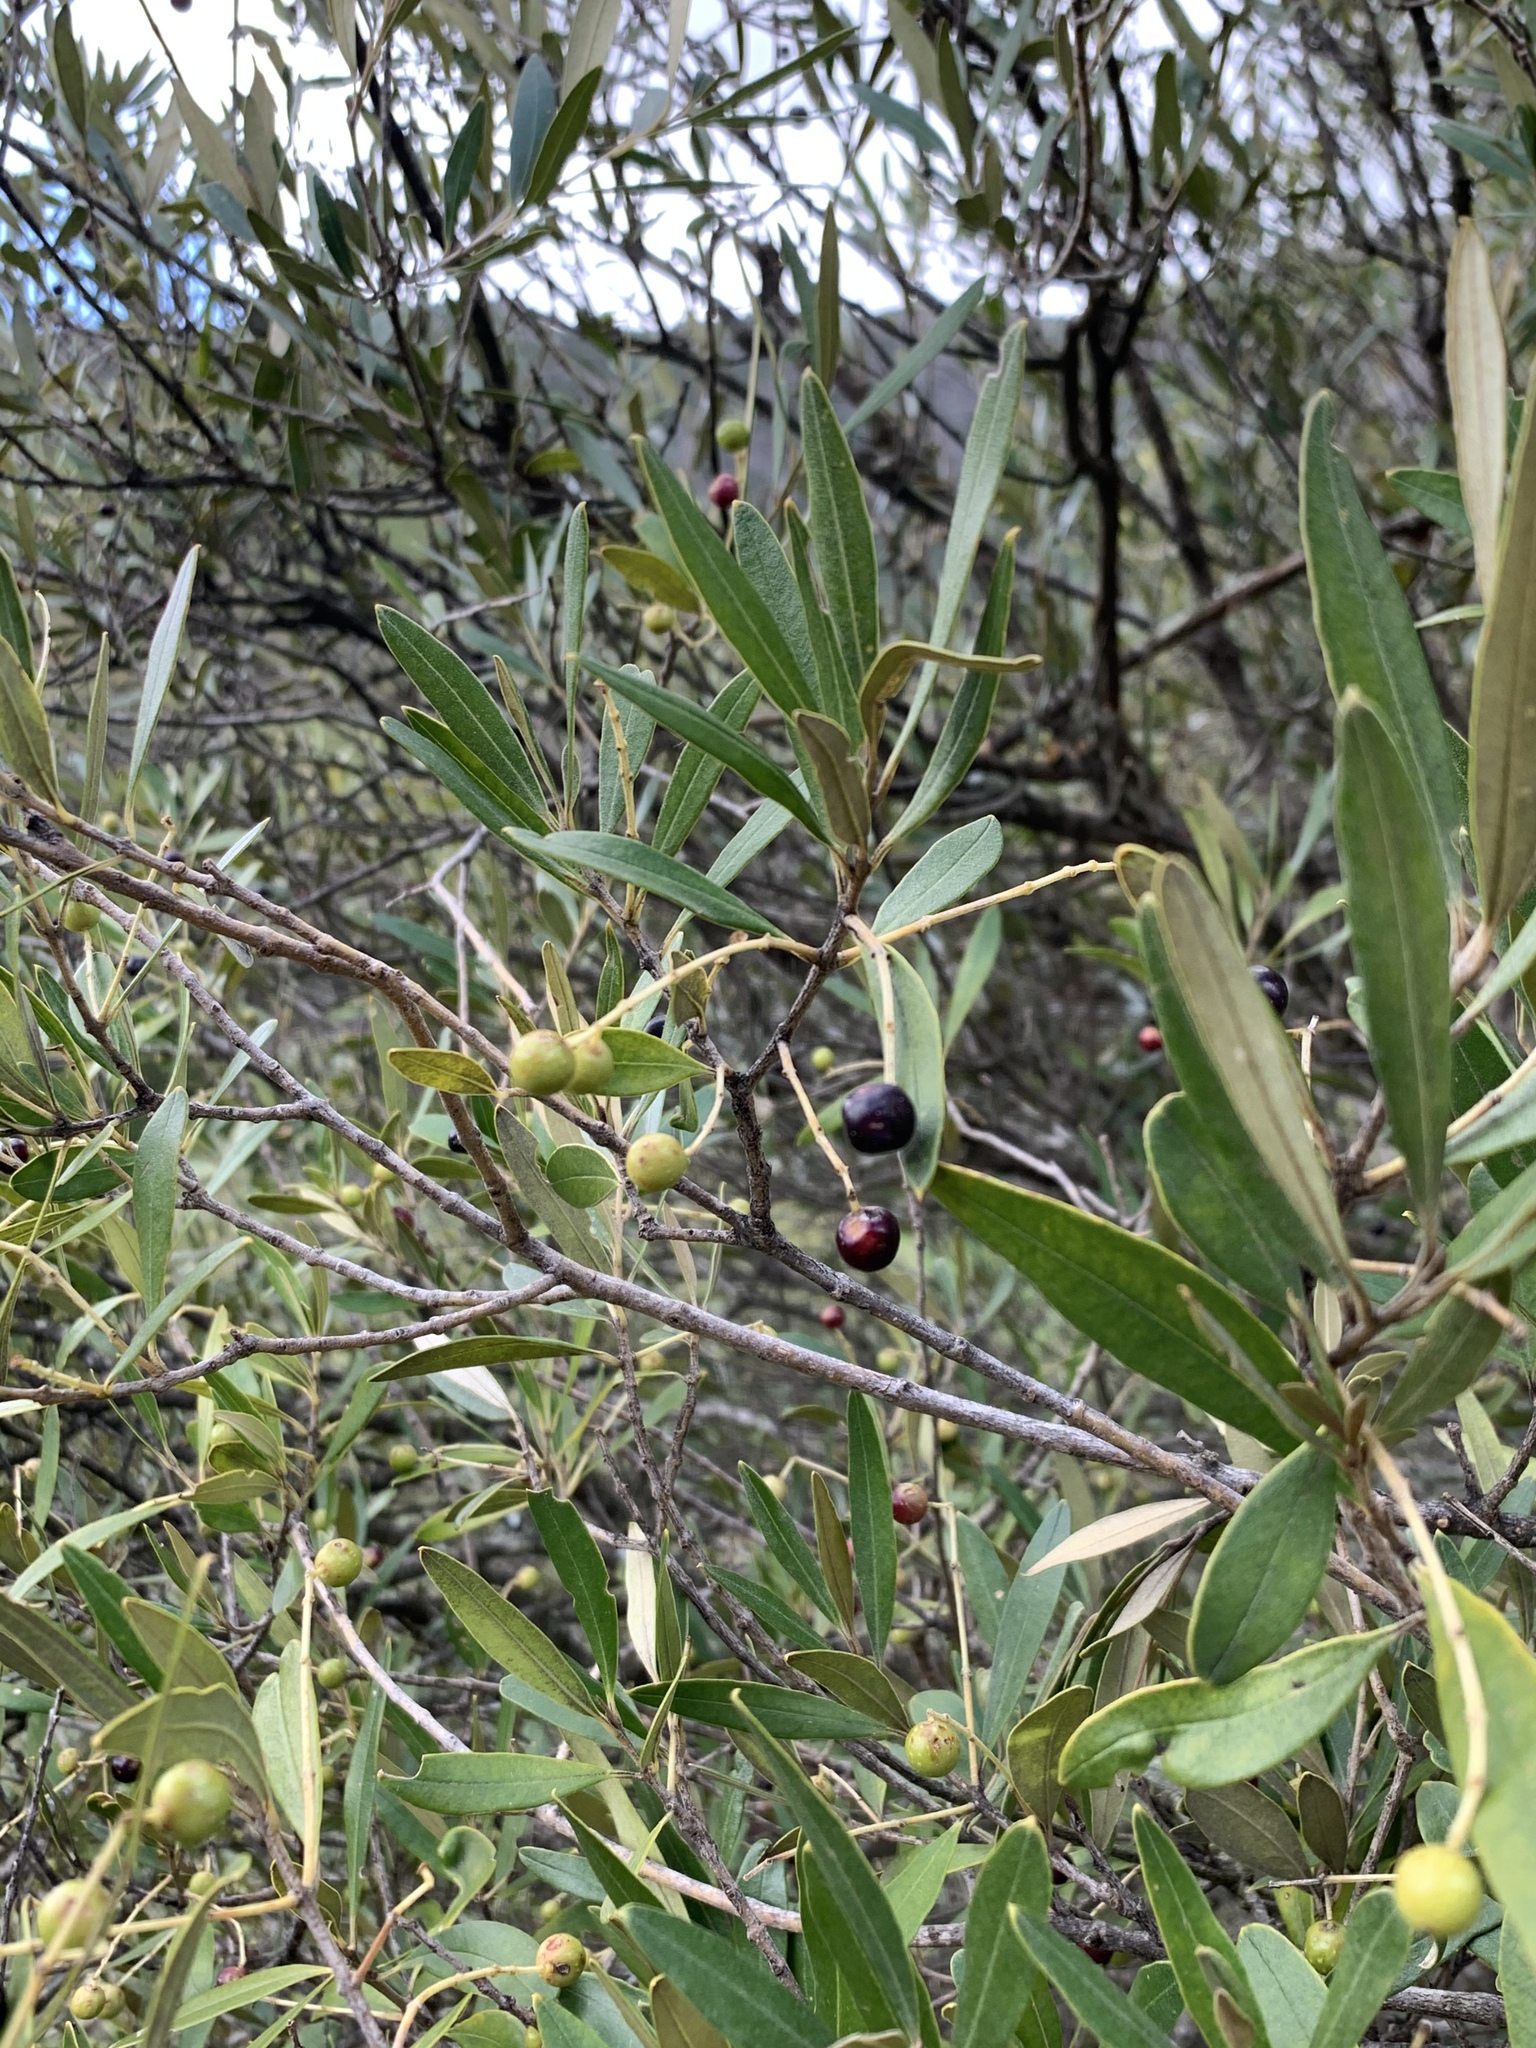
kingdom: Plantae
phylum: Tracheophyta
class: Magnoliopsida
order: Lamiales
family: Oleaceae
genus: Olea
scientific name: Olea europaea
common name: Olive
